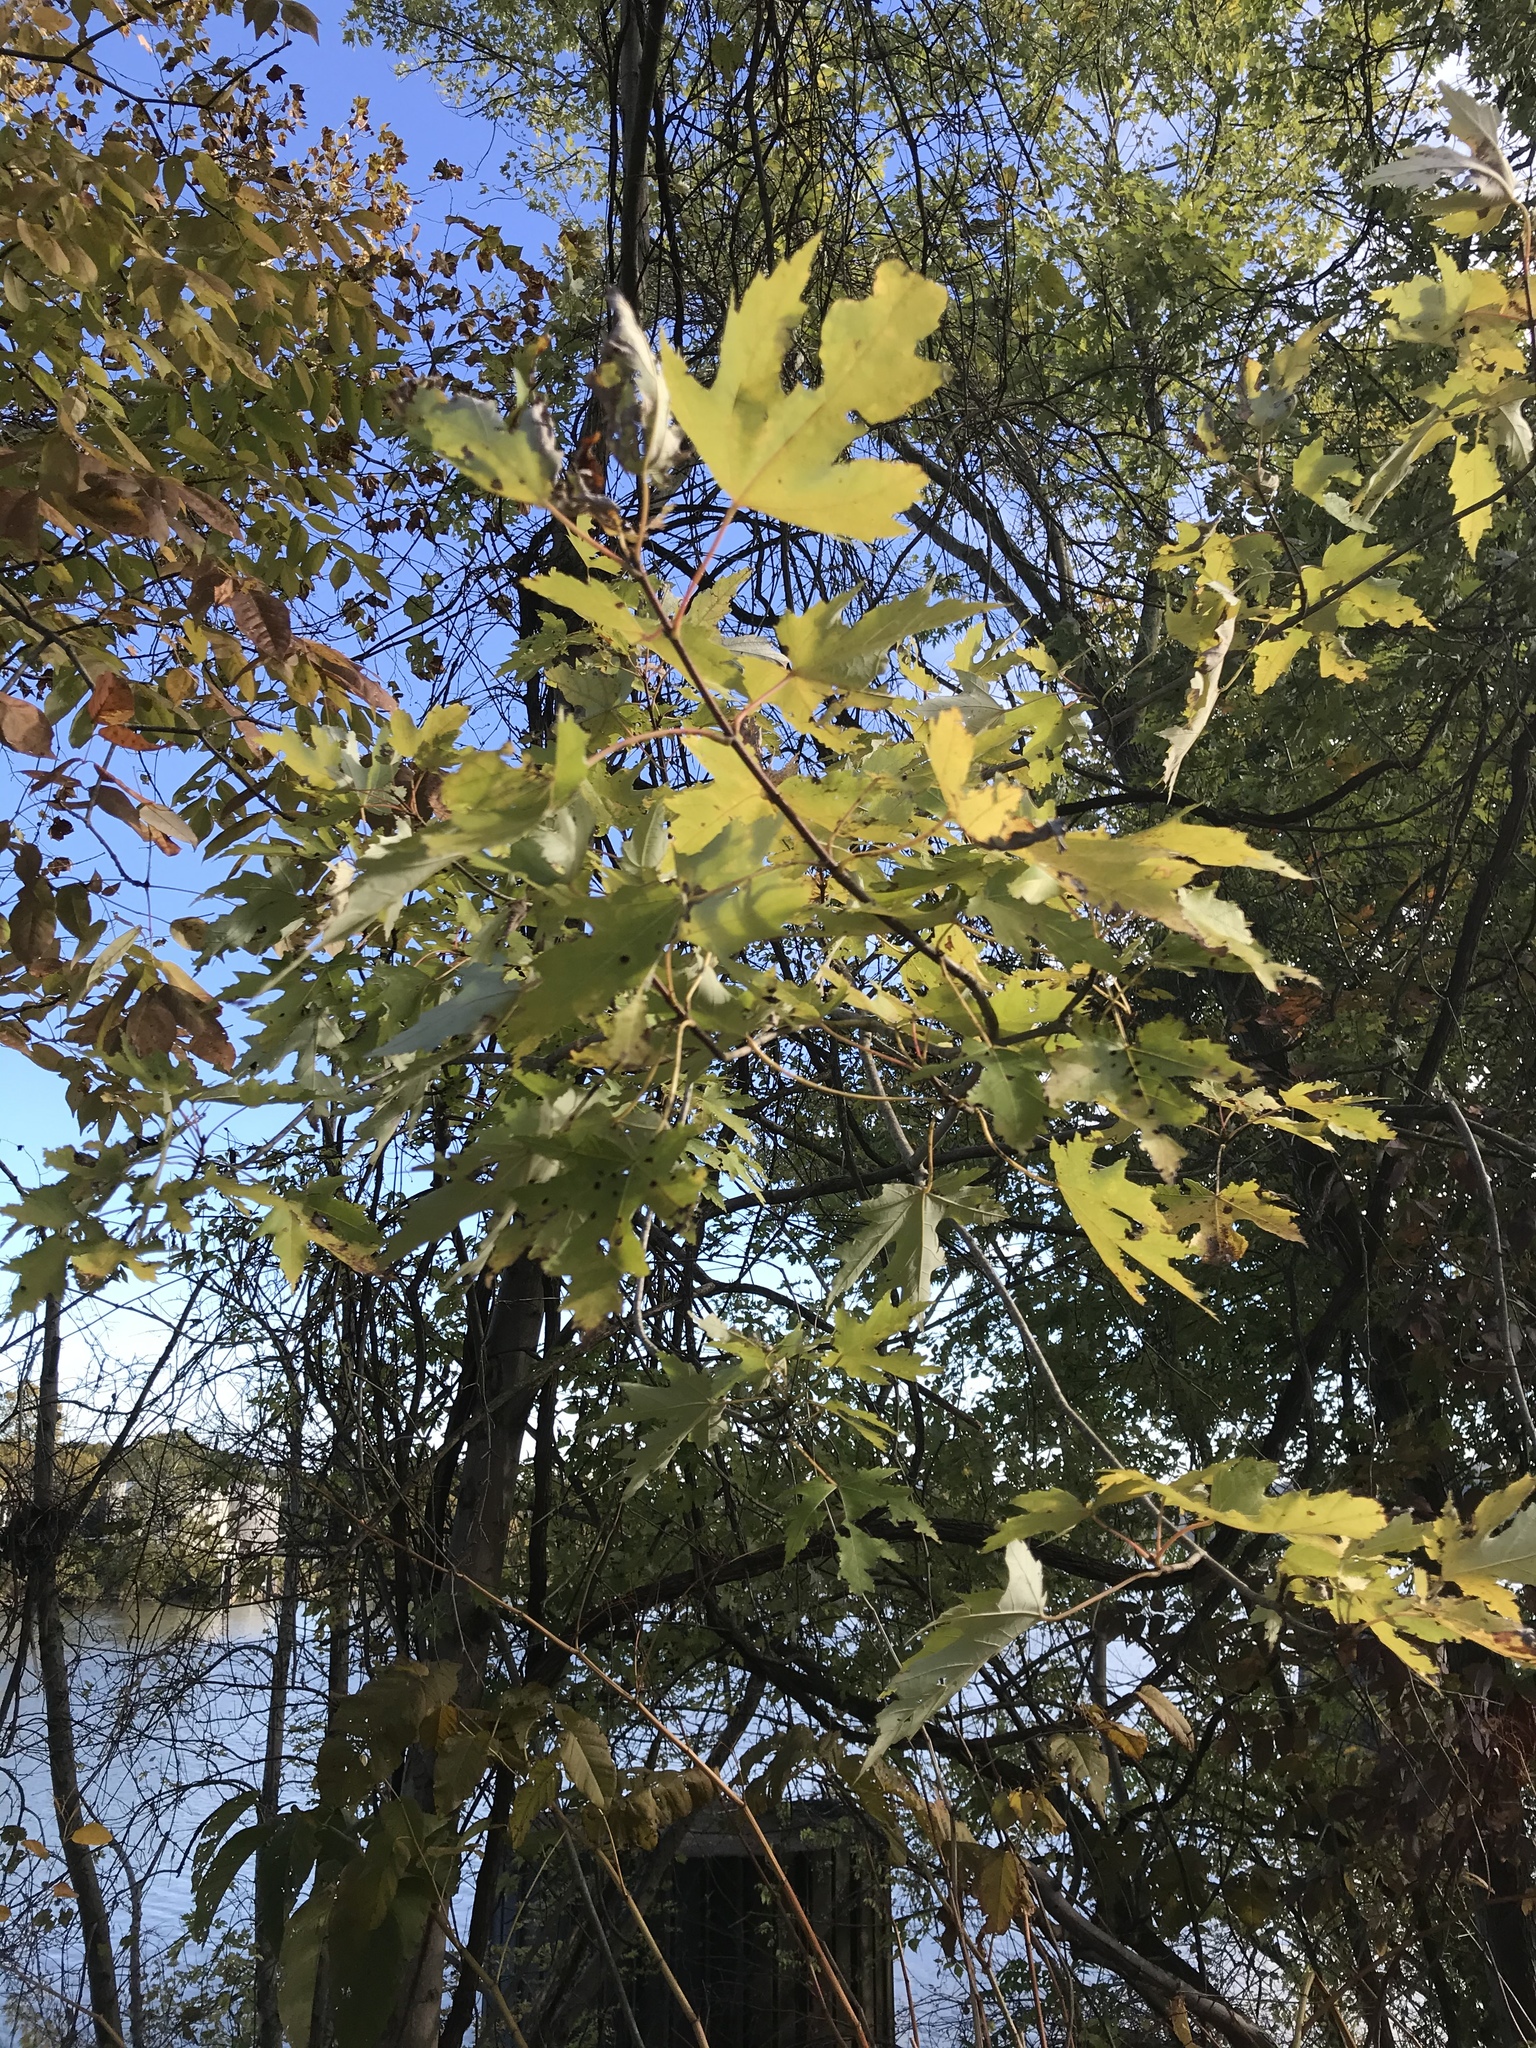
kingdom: Plantae
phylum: Tracheophyta
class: Magnoliopsida
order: Sapindales
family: Sapindaceae
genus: Acer
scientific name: Acer saccharinum
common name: Silver maple
